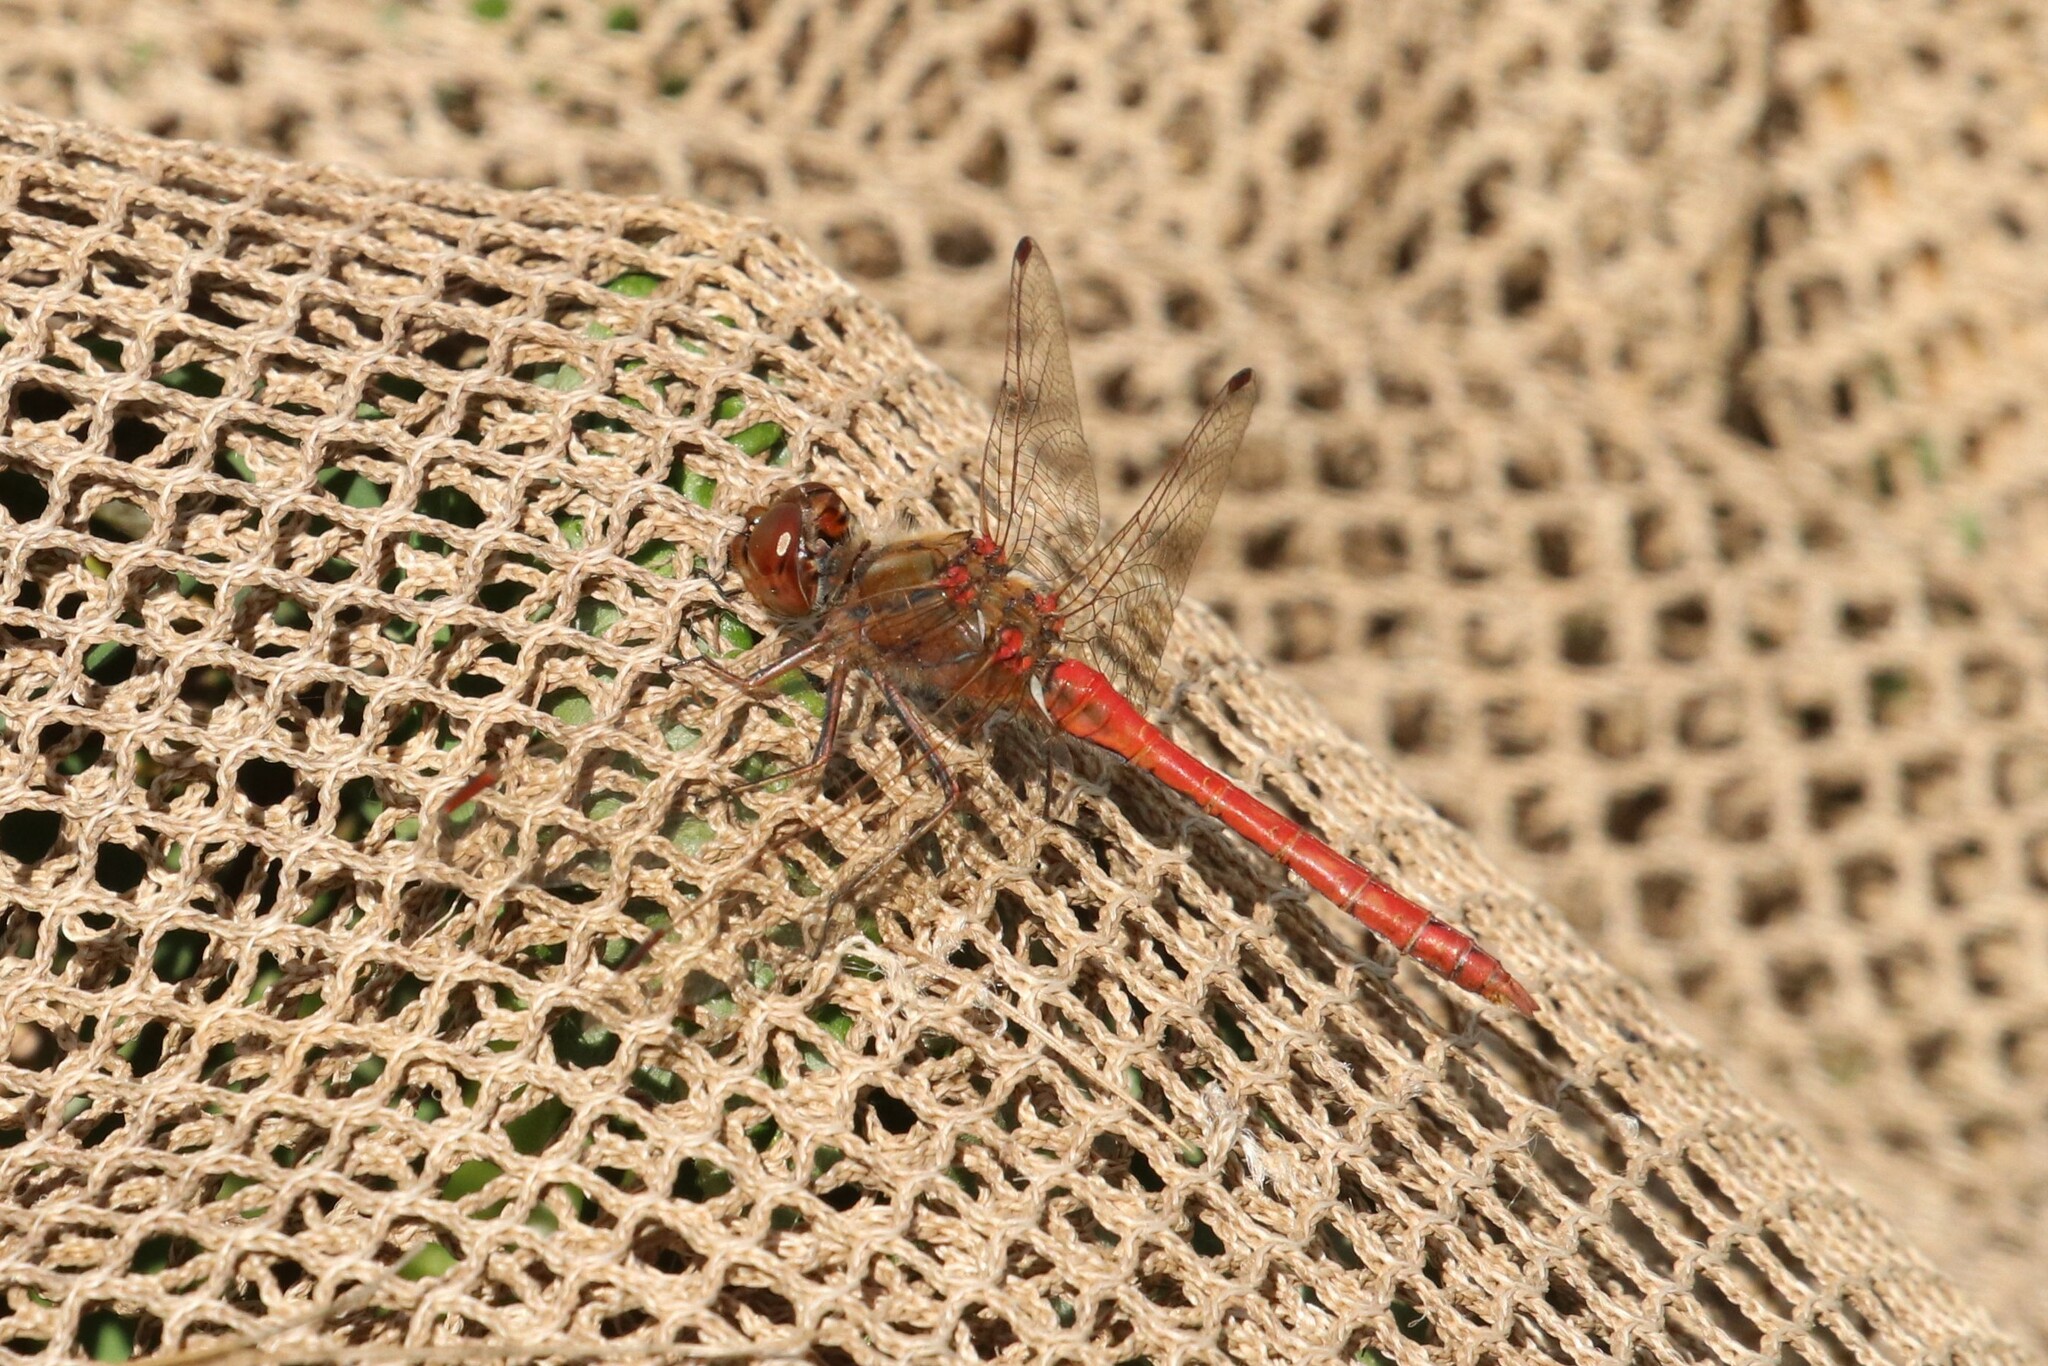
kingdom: Animalia
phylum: Arthropoda
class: Insecta
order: Odonata
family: Libellulidae
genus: Sympetrum
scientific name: Sympetrum vulgatum
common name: Vagrant darter
